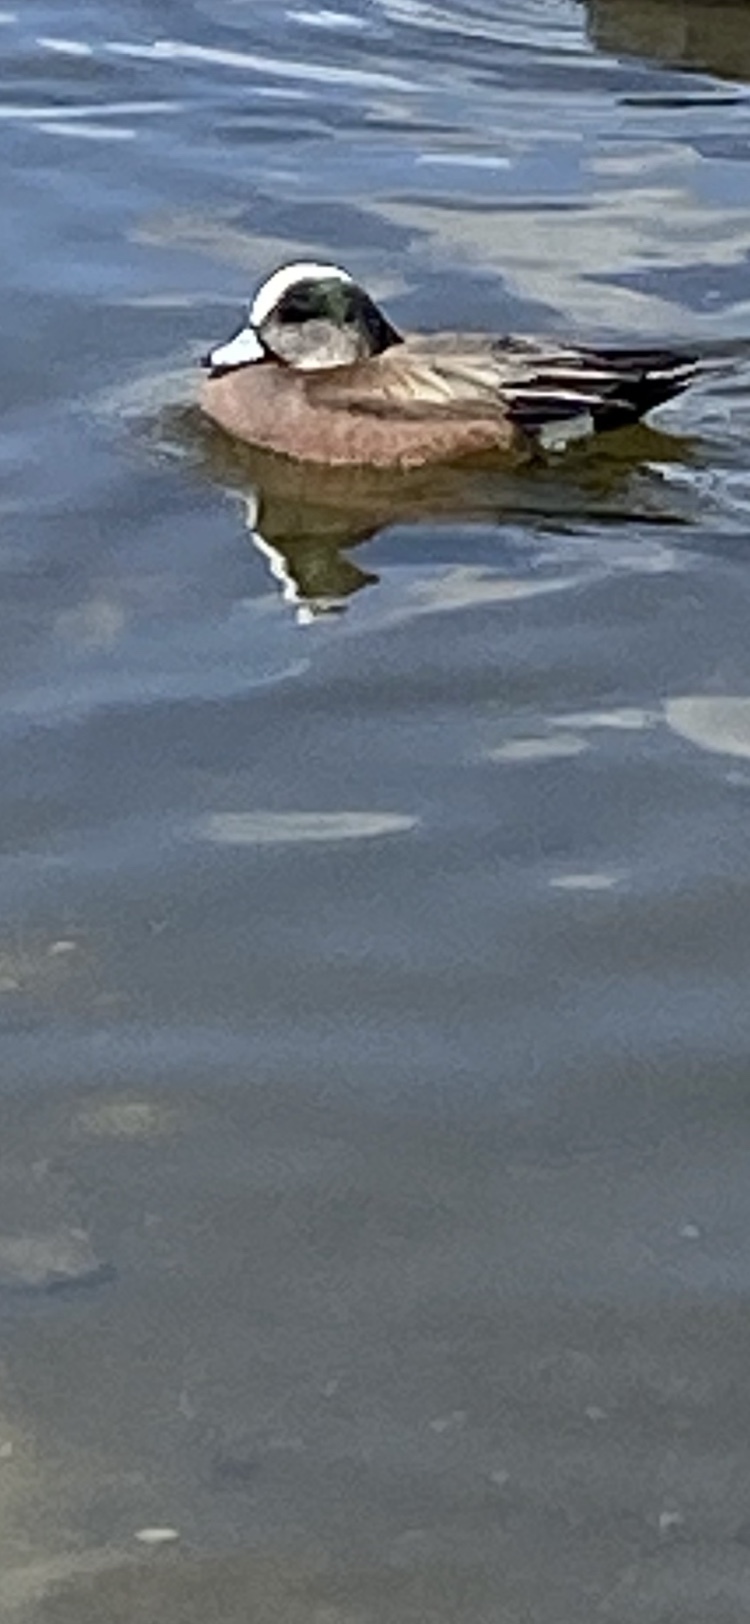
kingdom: Animalia
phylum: Chordata
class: Aves
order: Anseriformes
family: Anatidae
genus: Mareca
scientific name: Mareca americana
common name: American wigeon
